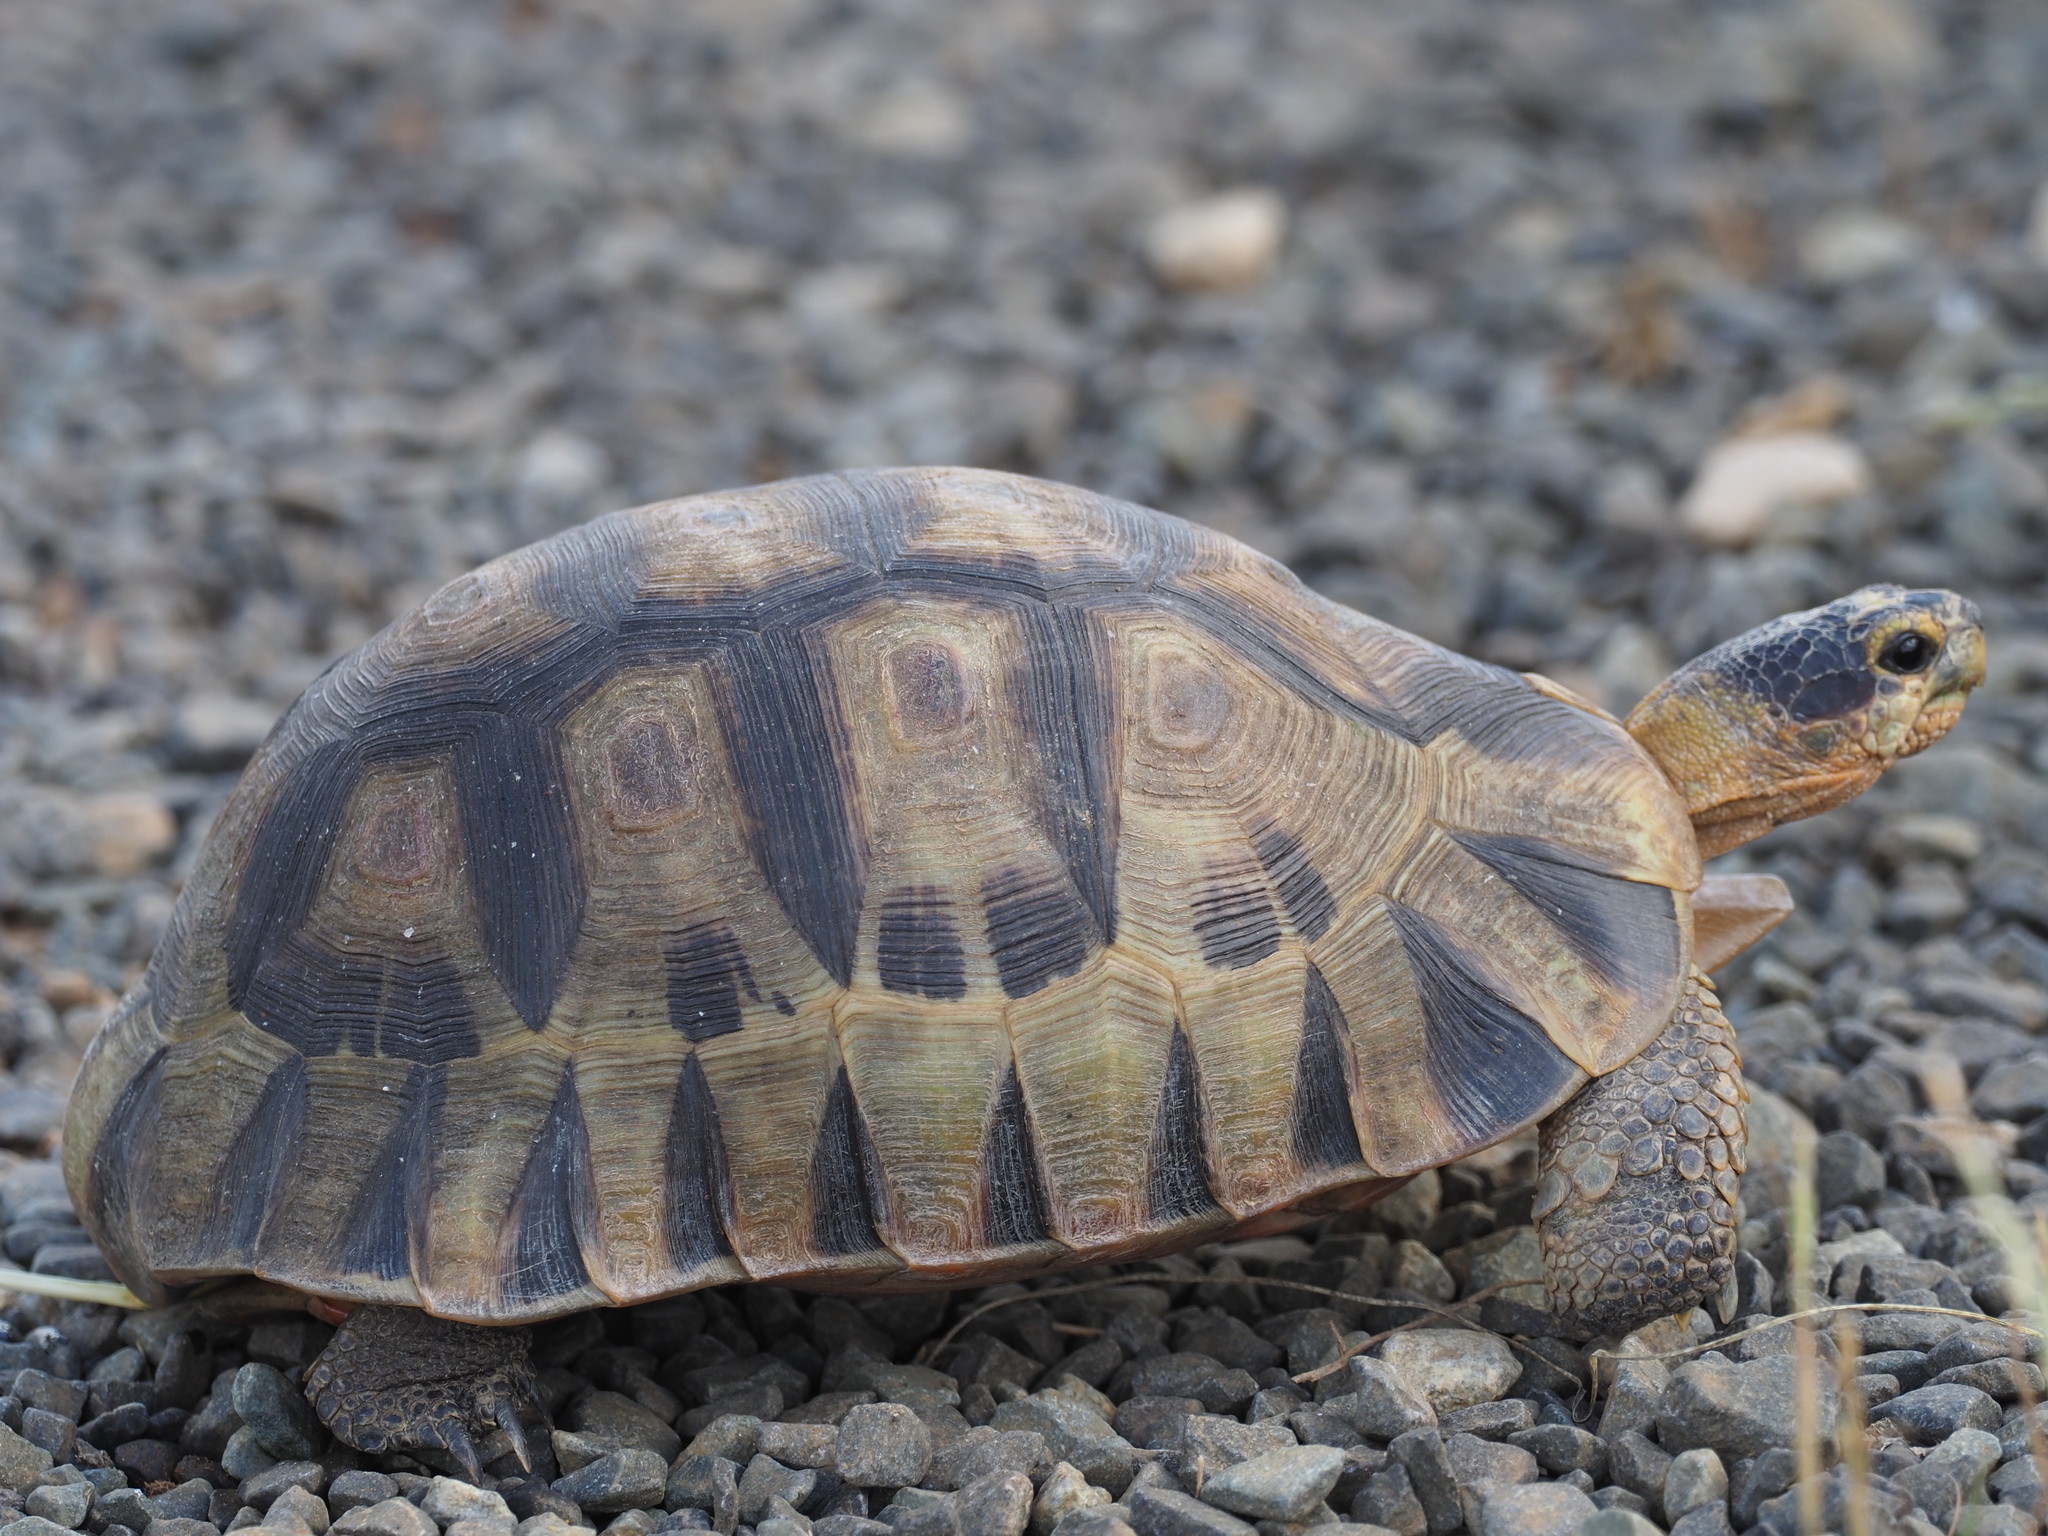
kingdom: Animalia
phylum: Chordata
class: Testudines
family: Testudinidae
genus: Chersina
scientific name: Chersina angulata
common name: South african bowsprit tortoise
